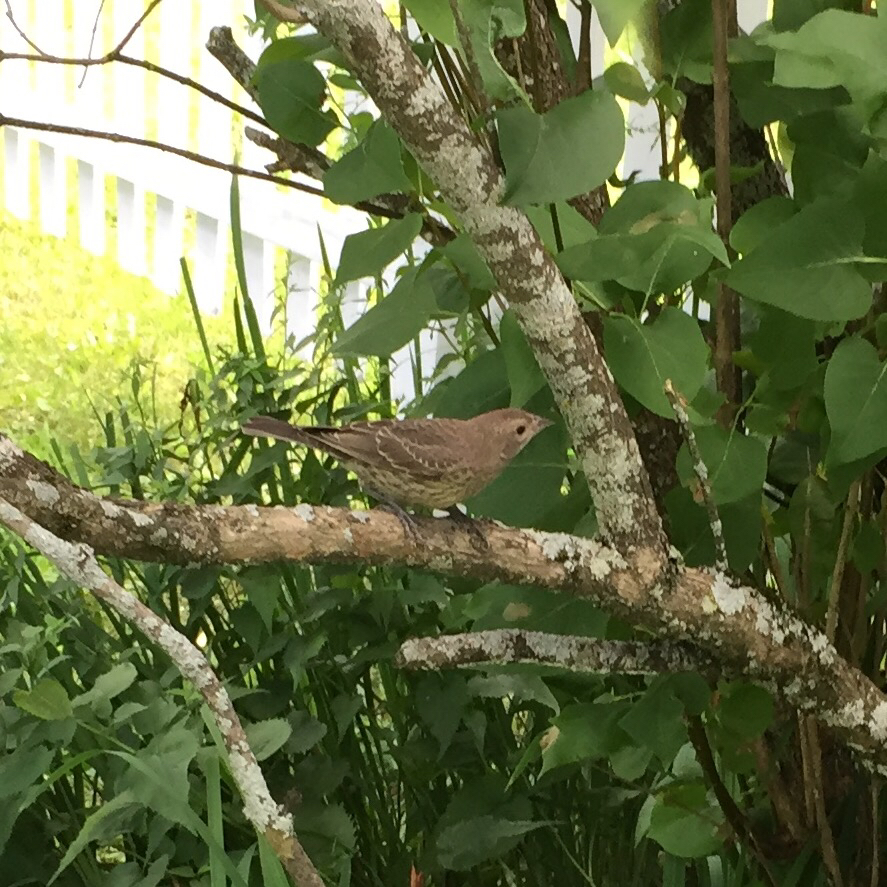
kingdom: Animalia
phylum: Chordata
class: Aves
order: Passeriformes
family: Icteridae
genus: Molothrus
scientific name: Molothrus ater
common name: Brown-headed cowbird
